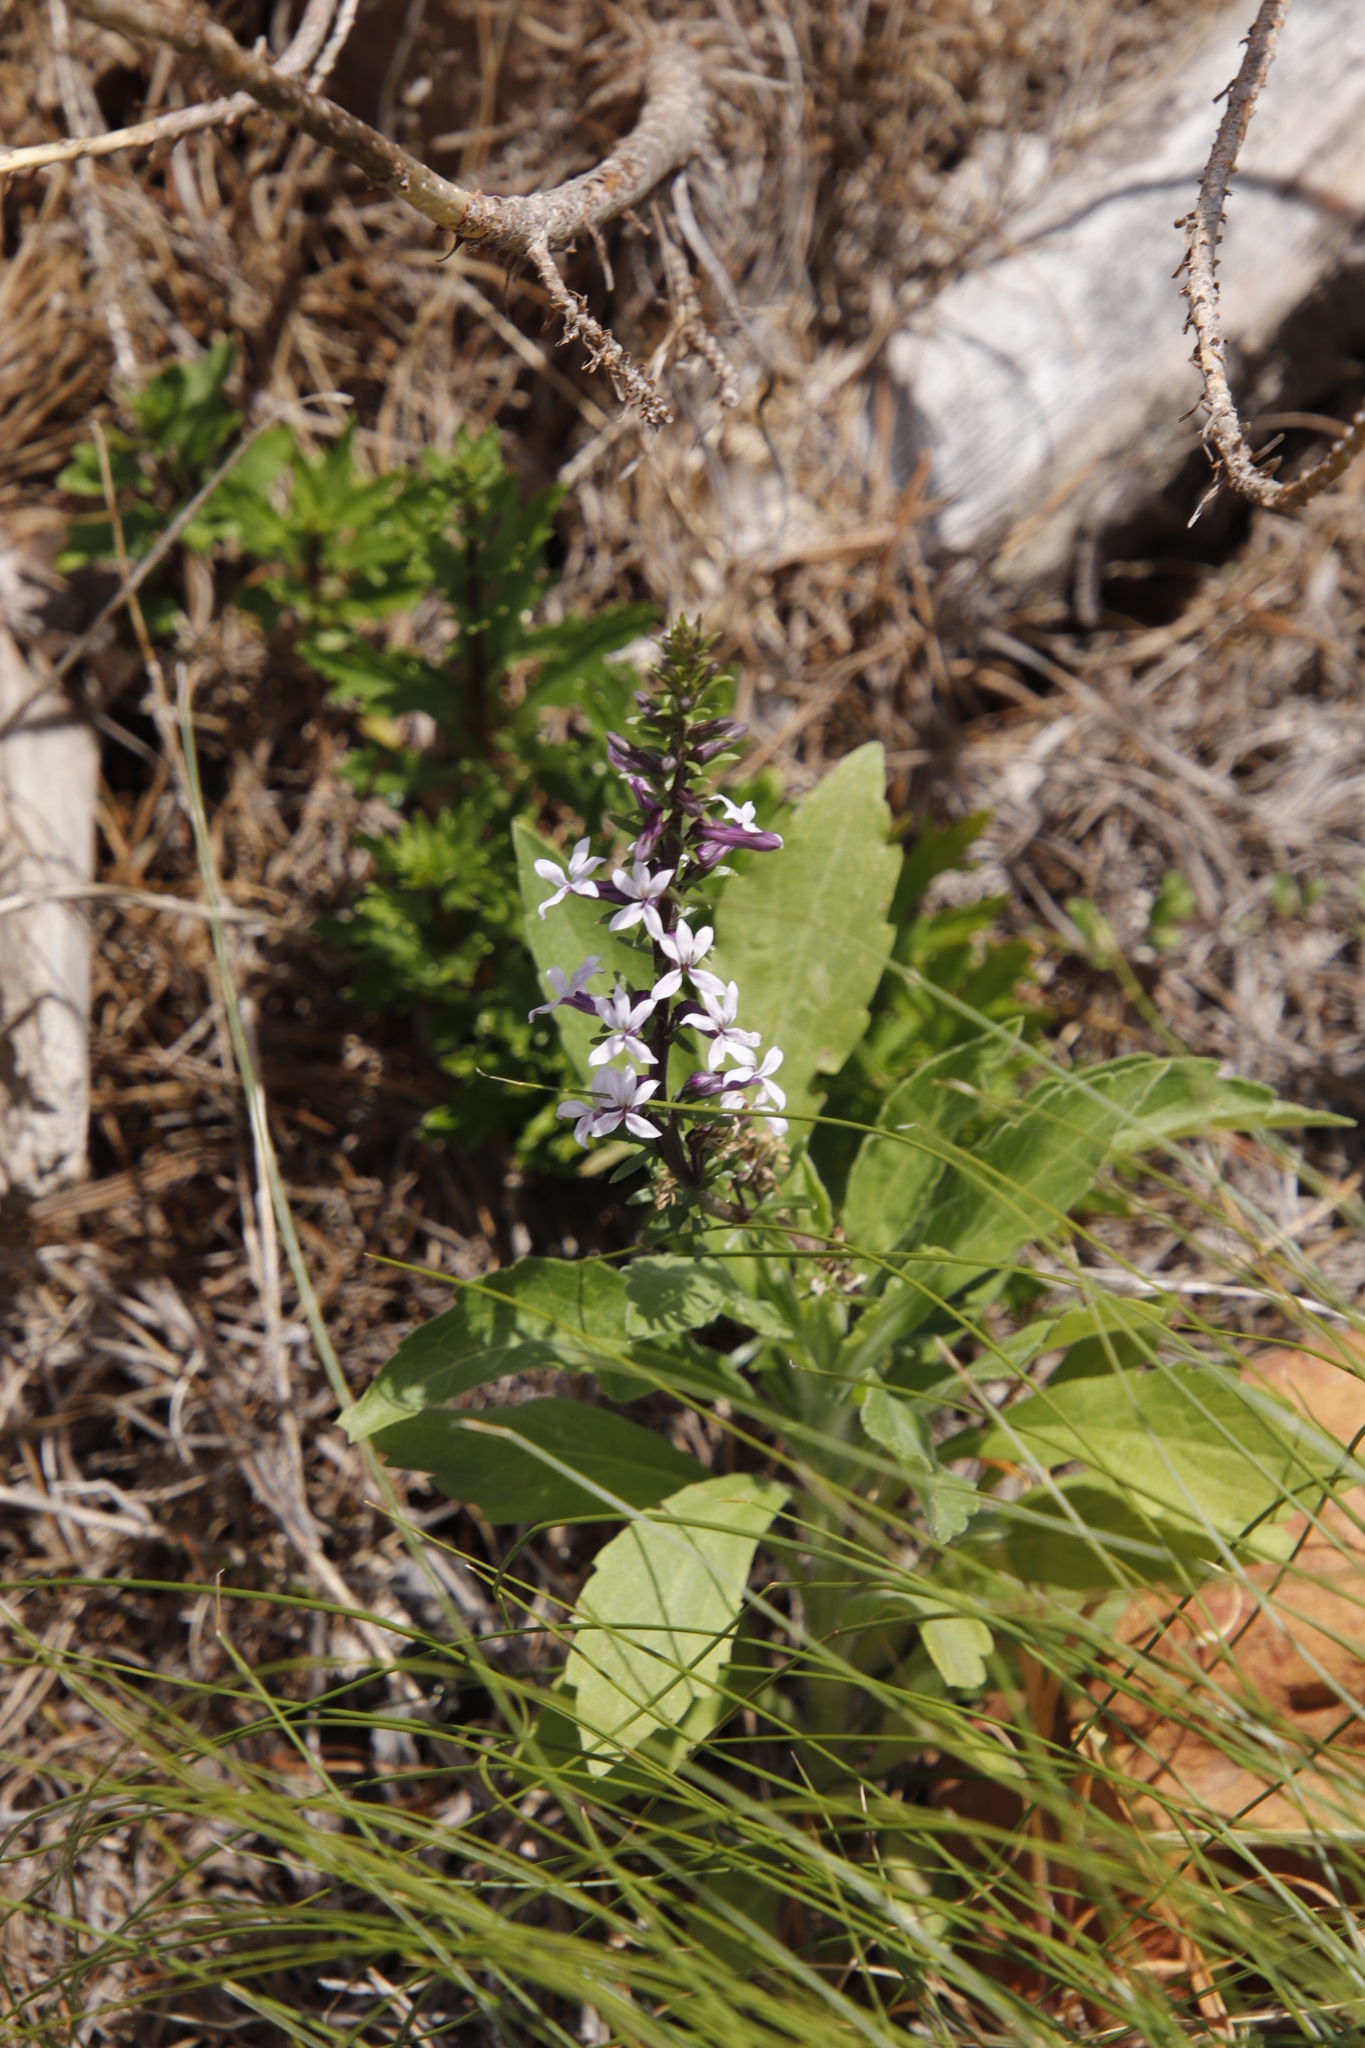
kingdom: Plantae
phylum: Tracheophyta
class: Magnoliopsida
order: Asterales
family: Campanulaceae
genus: Cyphia
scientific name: Cyphia bulbosa
